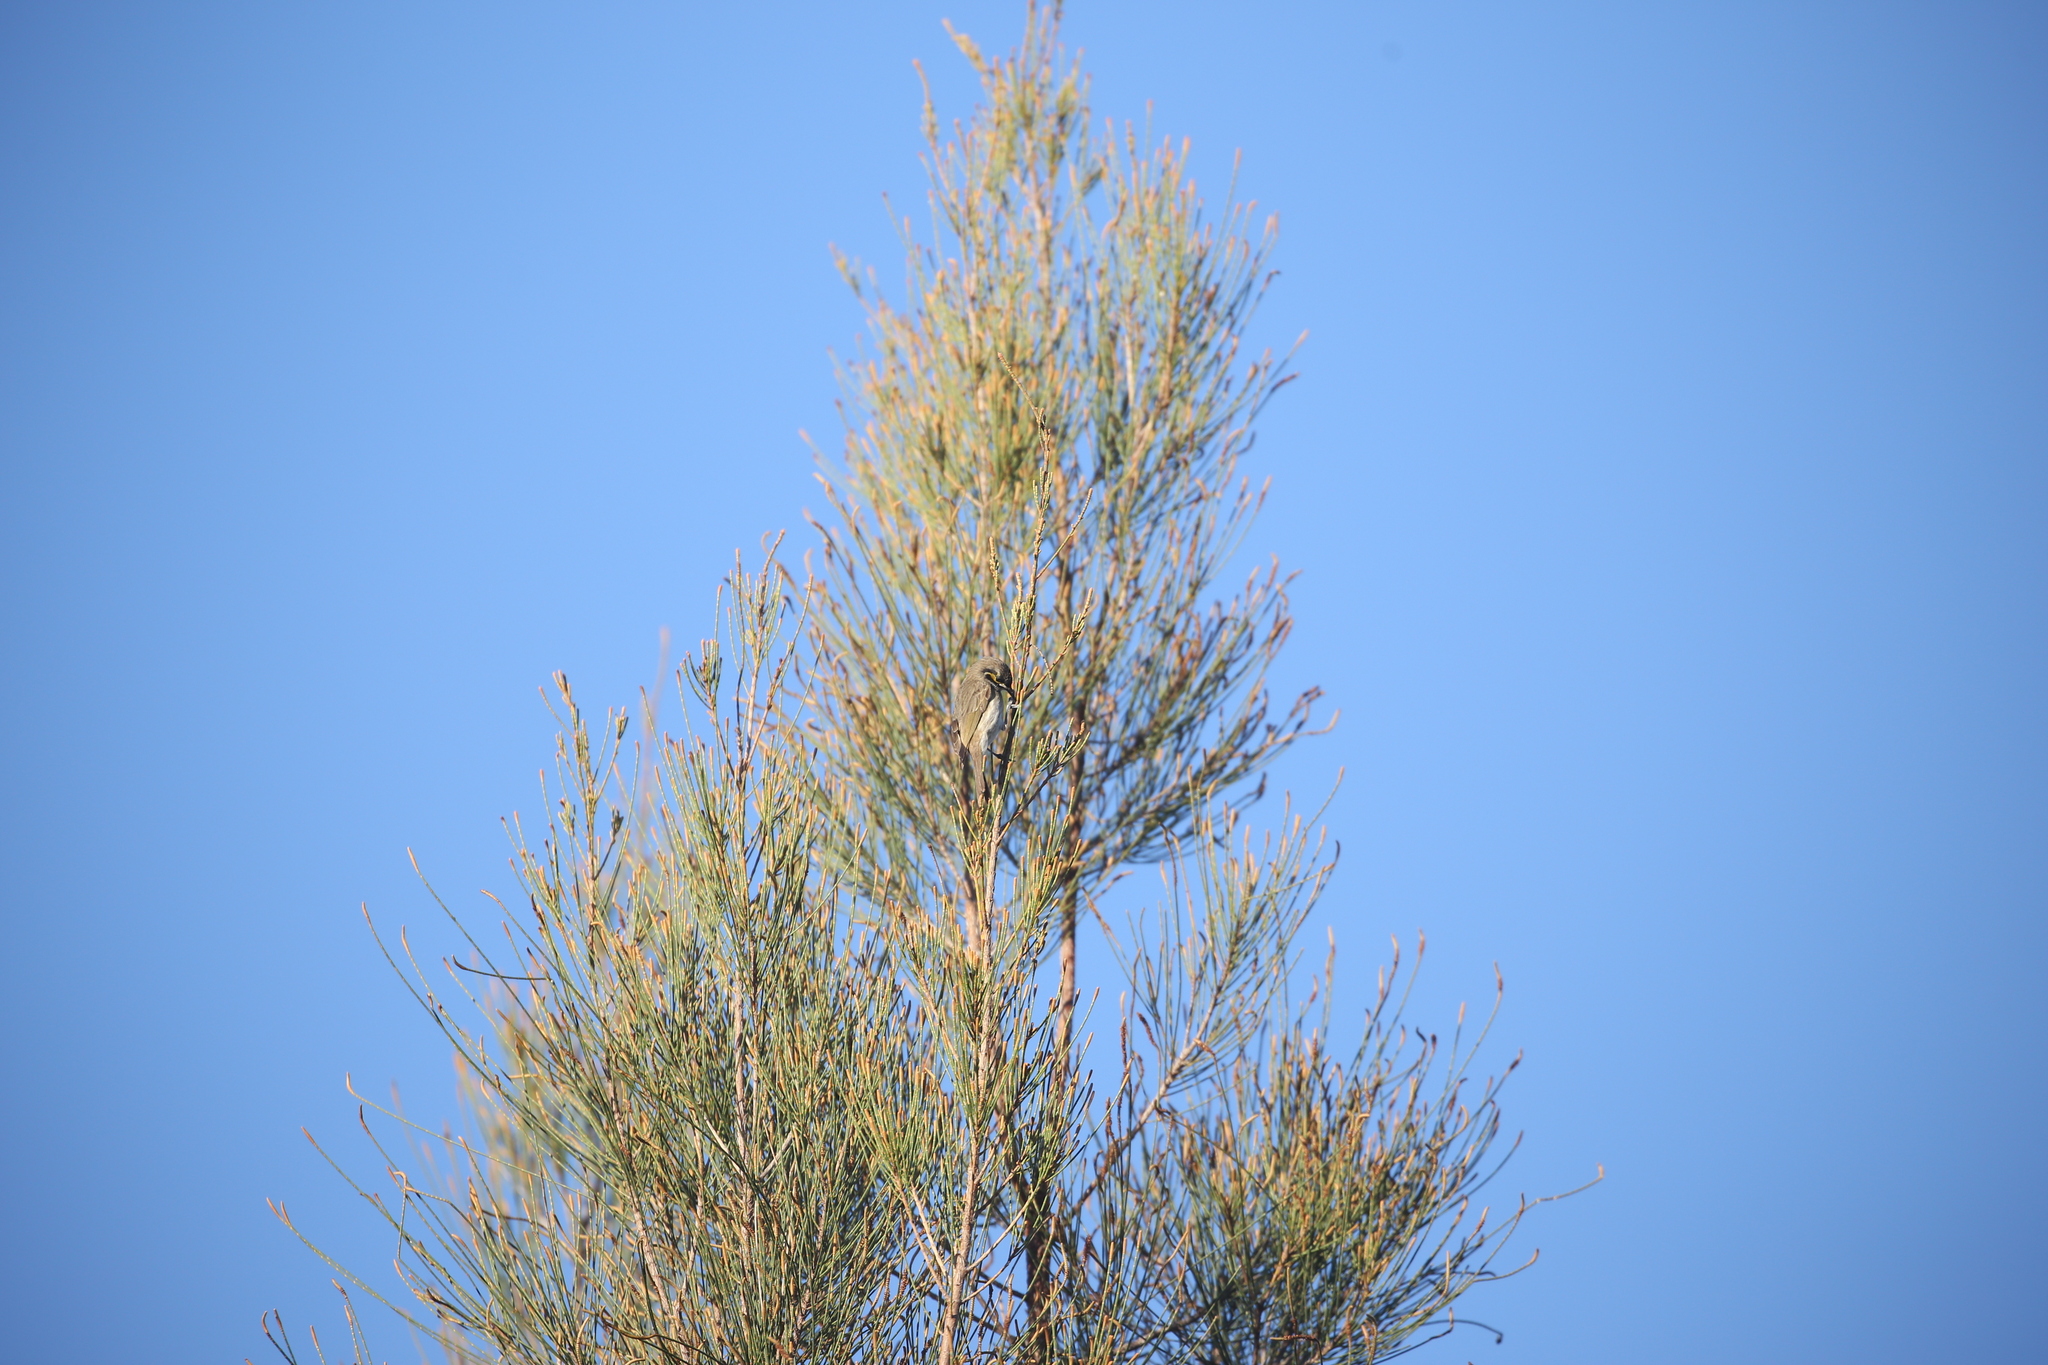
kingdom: Animalia
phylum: Chordata
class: Aves
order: Passeriformes
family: Meliphagidae
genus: Caligavis
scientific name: Caligavis chrysops
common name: Yellow-faced honeyeater
